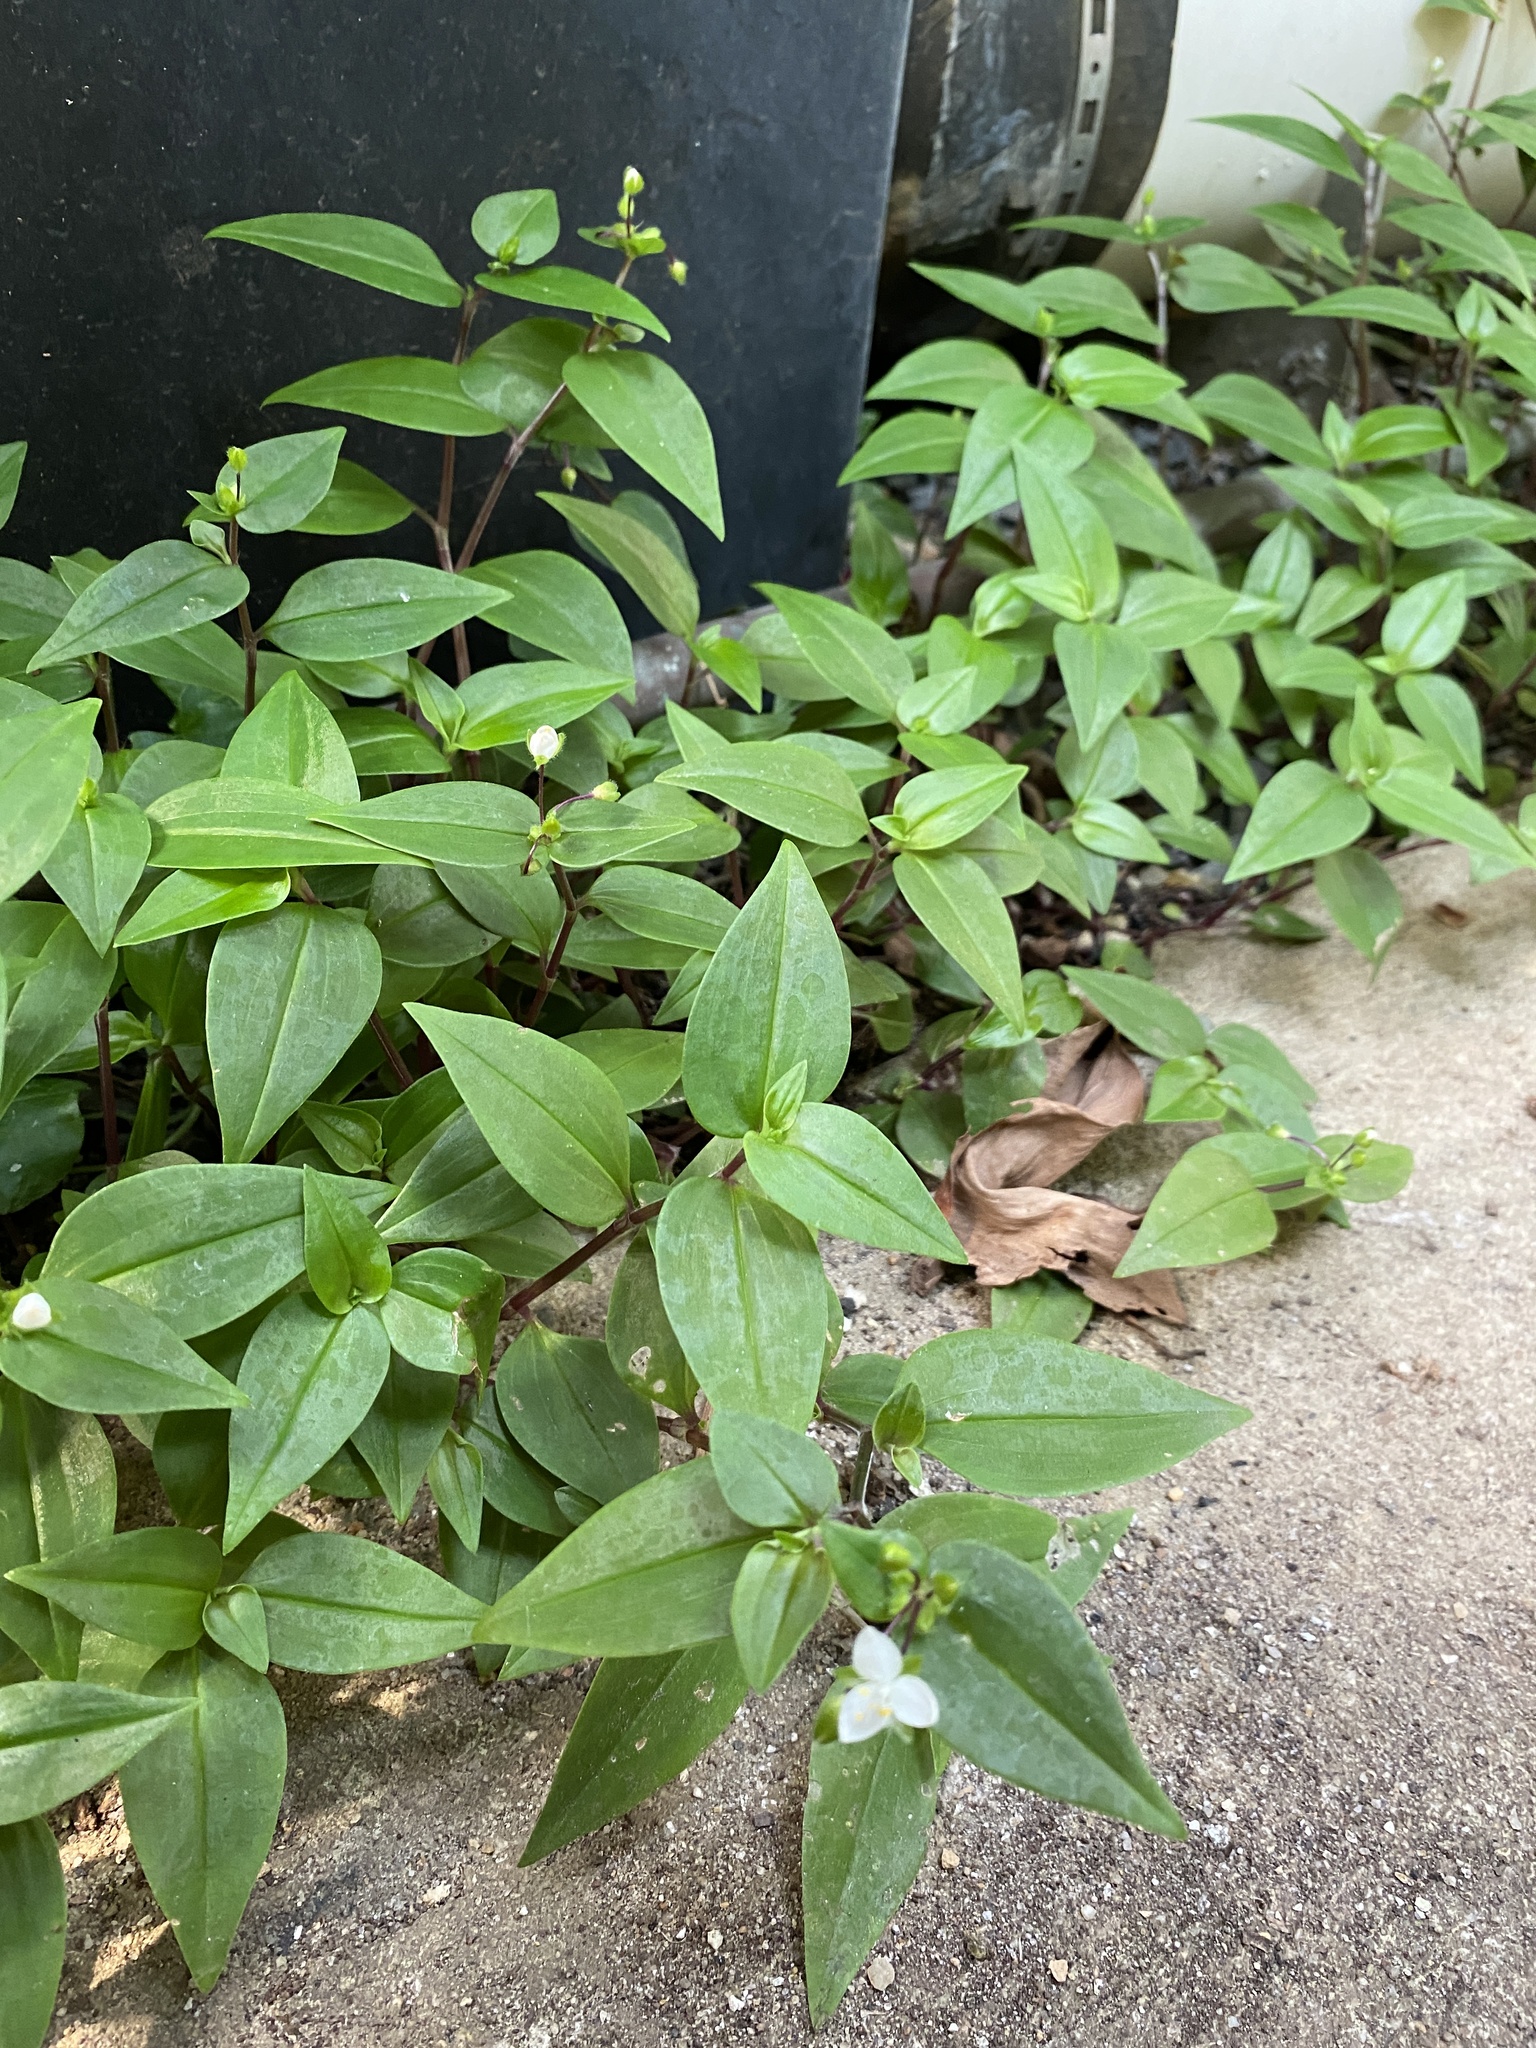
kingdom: Plantae
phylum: Tracheophyta
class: Liliopsida
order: Commelinales
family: Commelinaceae
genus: Tradescantia
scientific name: Tradescantia fluminensis
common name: Wandering-jew
